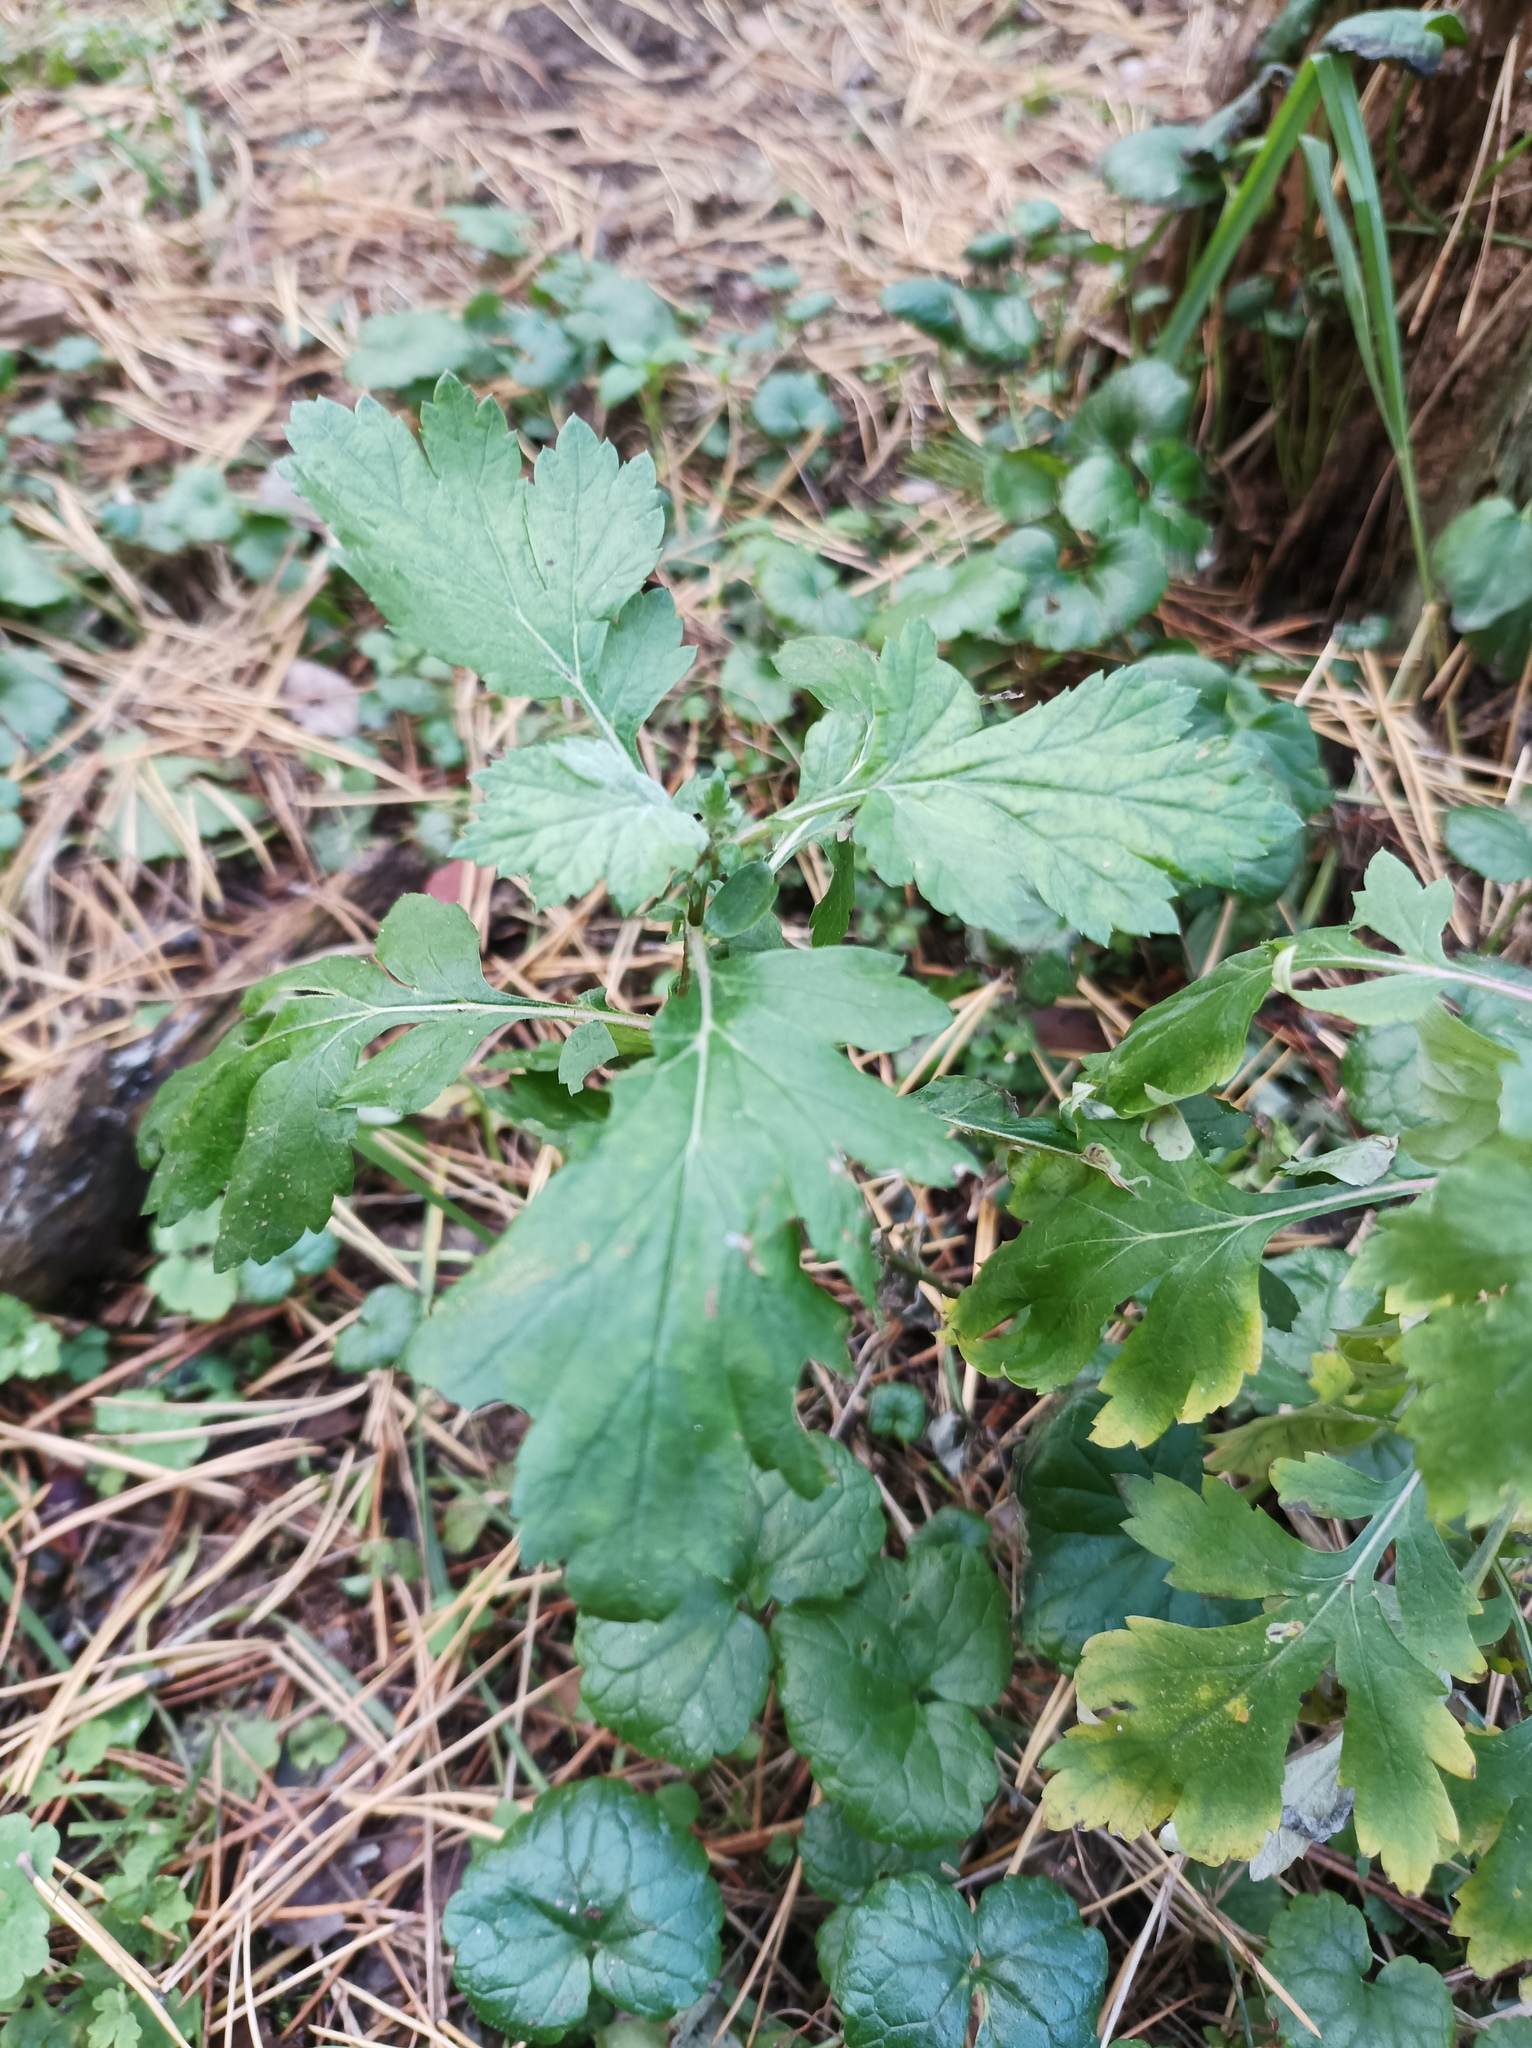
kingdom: Plantae
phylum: Tracheophyta
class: Magnoliopsida
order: Asterales
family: Asteraceae
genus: Artemisia
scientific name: Artemisia vulgaris
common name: Mugwort
